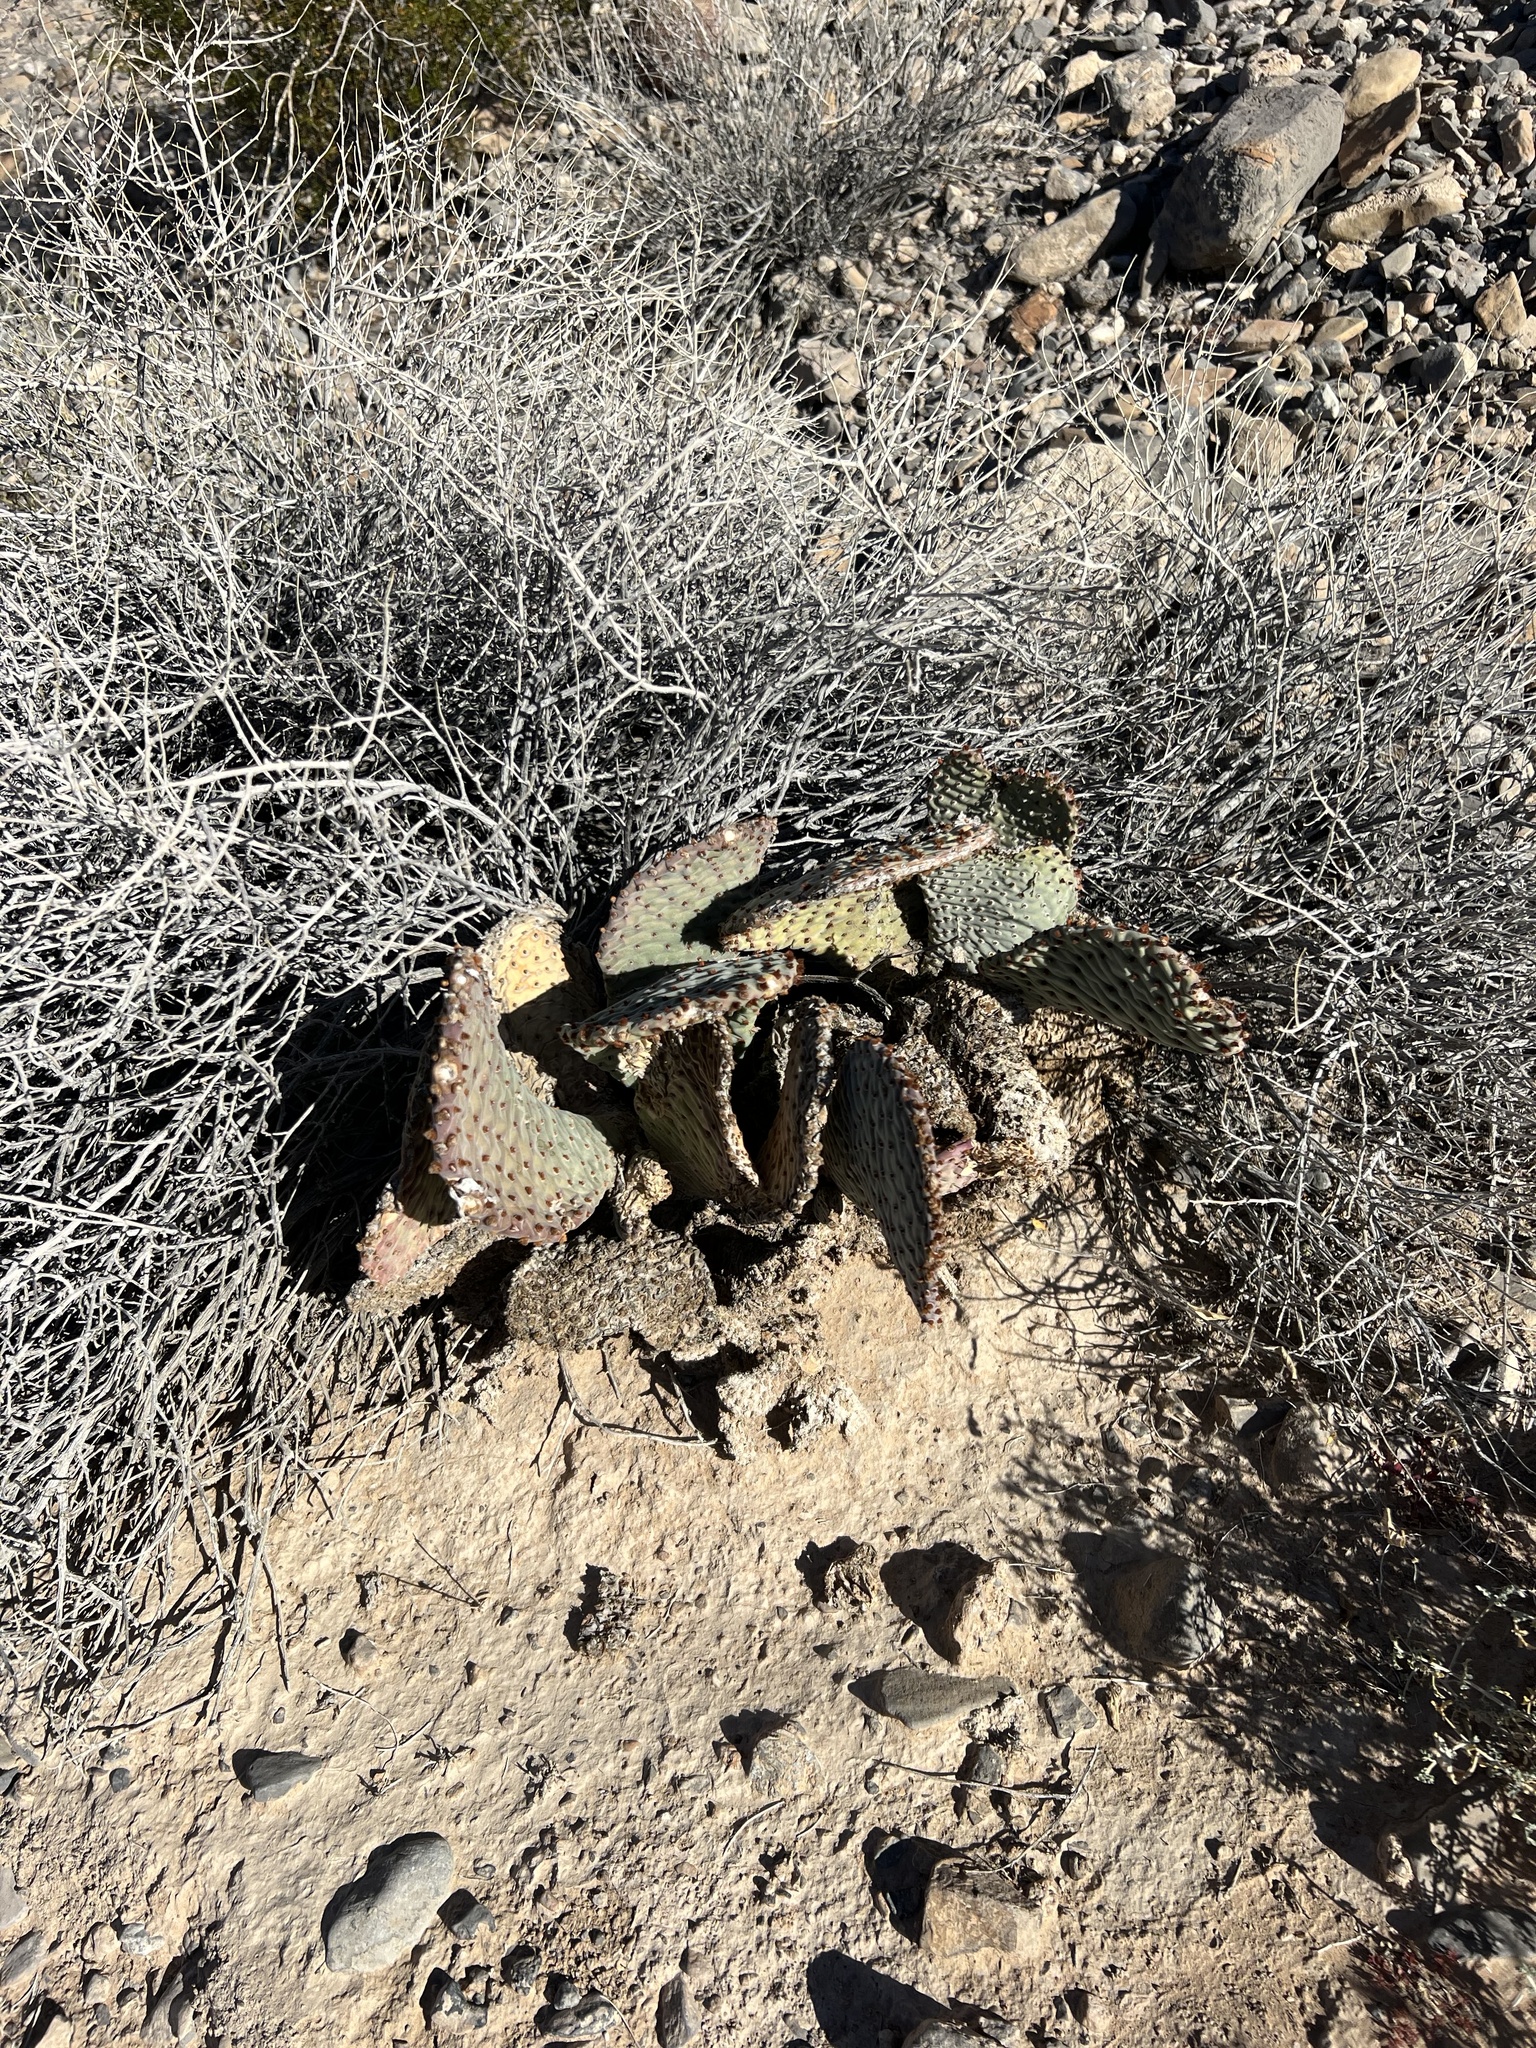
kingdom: Plantae
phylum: Tracheophyta
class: Magnoliopsida
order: Caryophyllales
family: Cactaceae
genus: Opuntia
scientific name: Opuntia basilaris
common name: Beavertail prickly-pear
